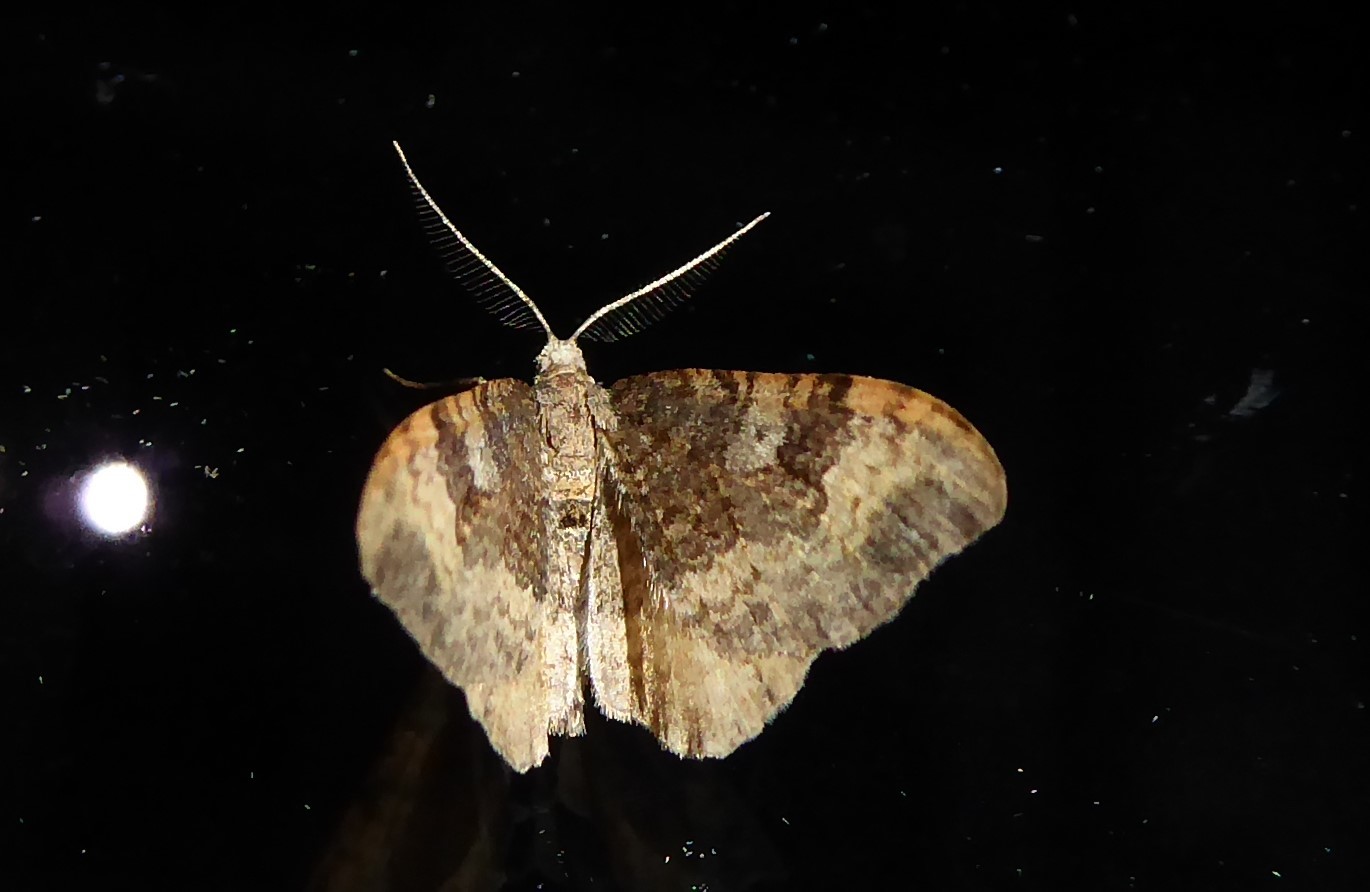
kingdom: Animalia
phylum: Arthropoda
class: Insecta
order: Lepidoptera
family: Geometridae
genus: Homodotis
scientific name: Homodotis megaspilata
